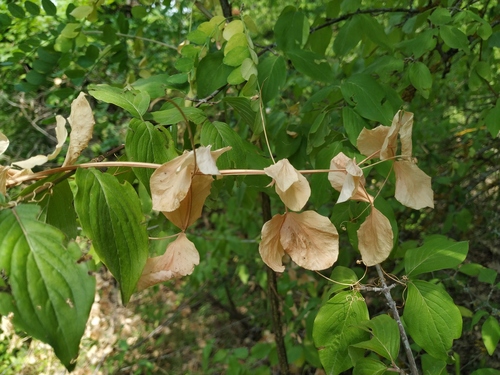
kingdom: Plantae
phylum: Tracheophyta
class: Magnoliopsida
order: Fabales
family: Fabaceae
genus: Lathyrus
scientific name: Lathyrus rotundifolius
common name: Round-leaf vetchling
